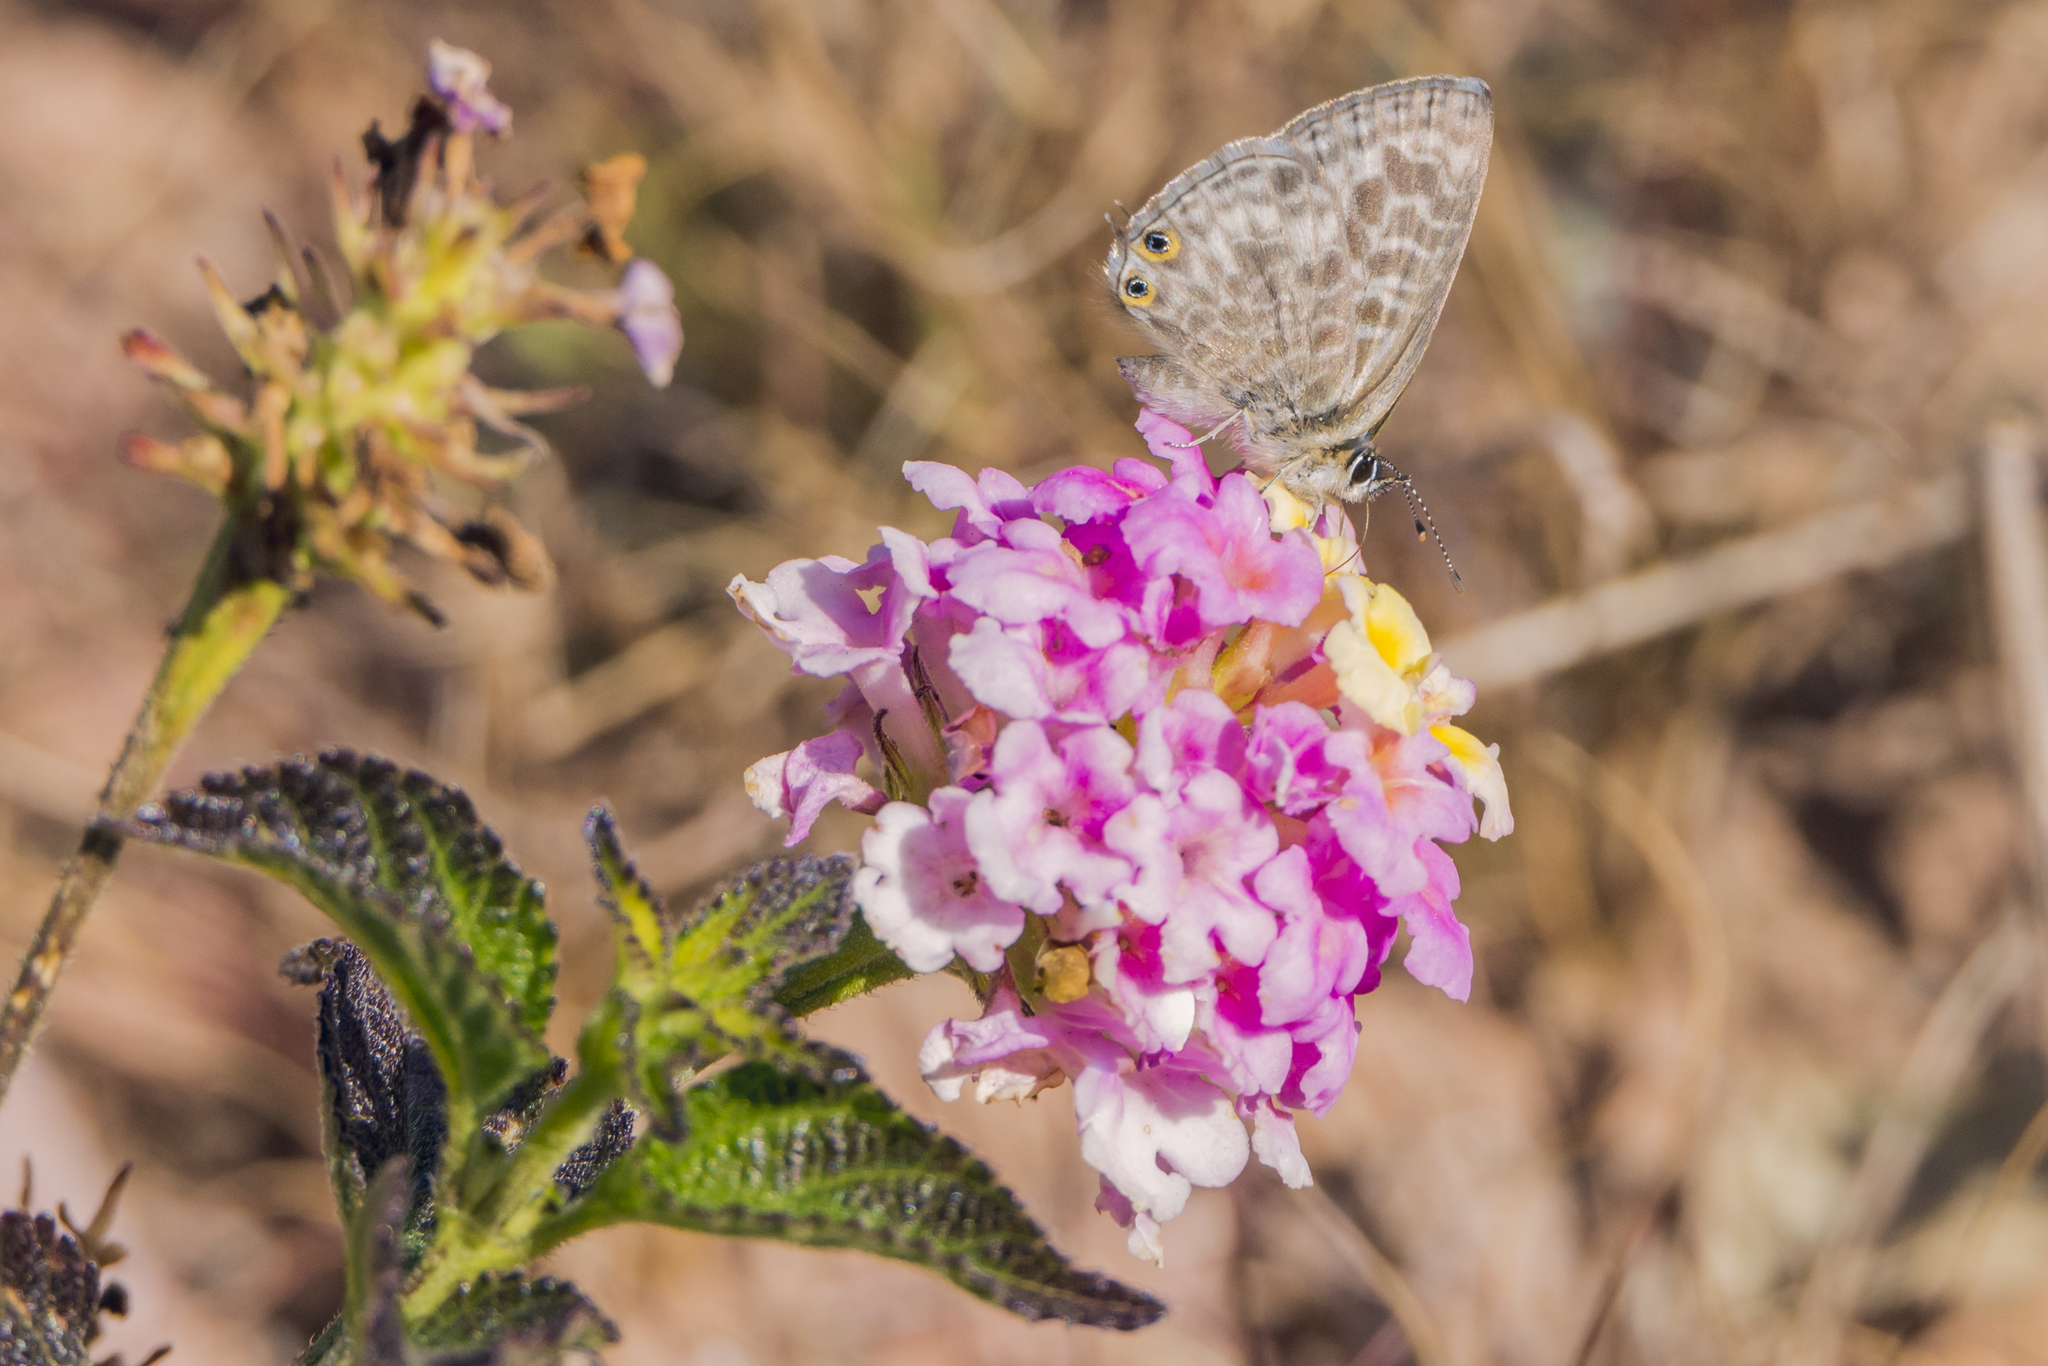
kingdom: Animalia
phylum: Arthropoda
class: Insecta
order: Lepidoptera
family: Lycaenidae
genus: Leptotes
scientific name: Leptotes pirithous
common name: Lang's short-tailed blue
